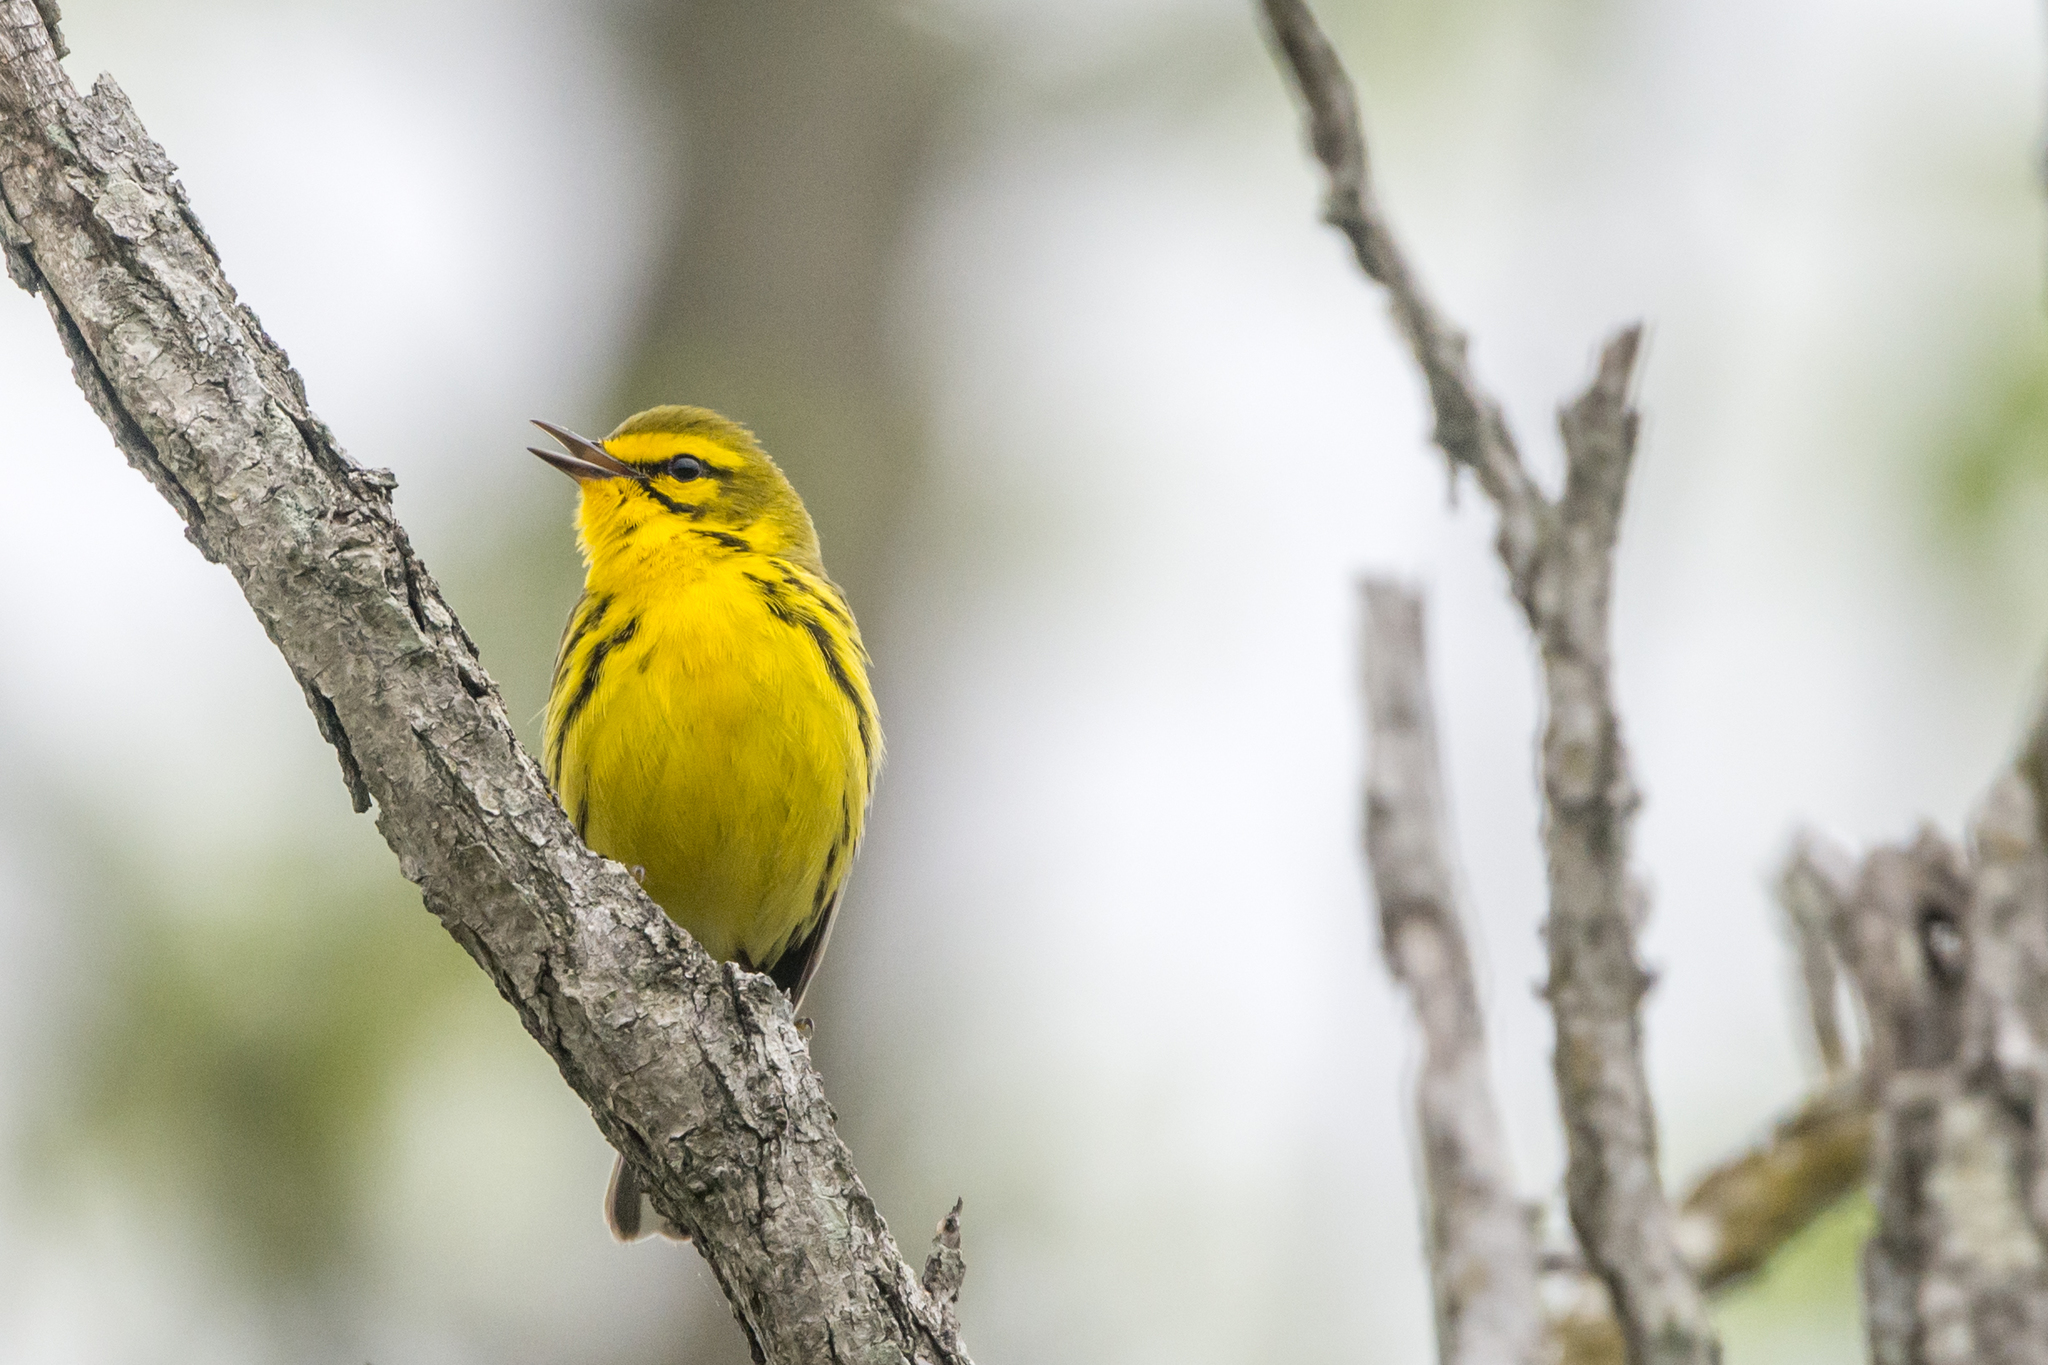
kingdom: Animalia
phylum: Chordata
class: Aves
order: Passeriformes
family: Parulidae
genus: Setophaga
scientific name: Setophaga discolor
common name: Prairie warbler
